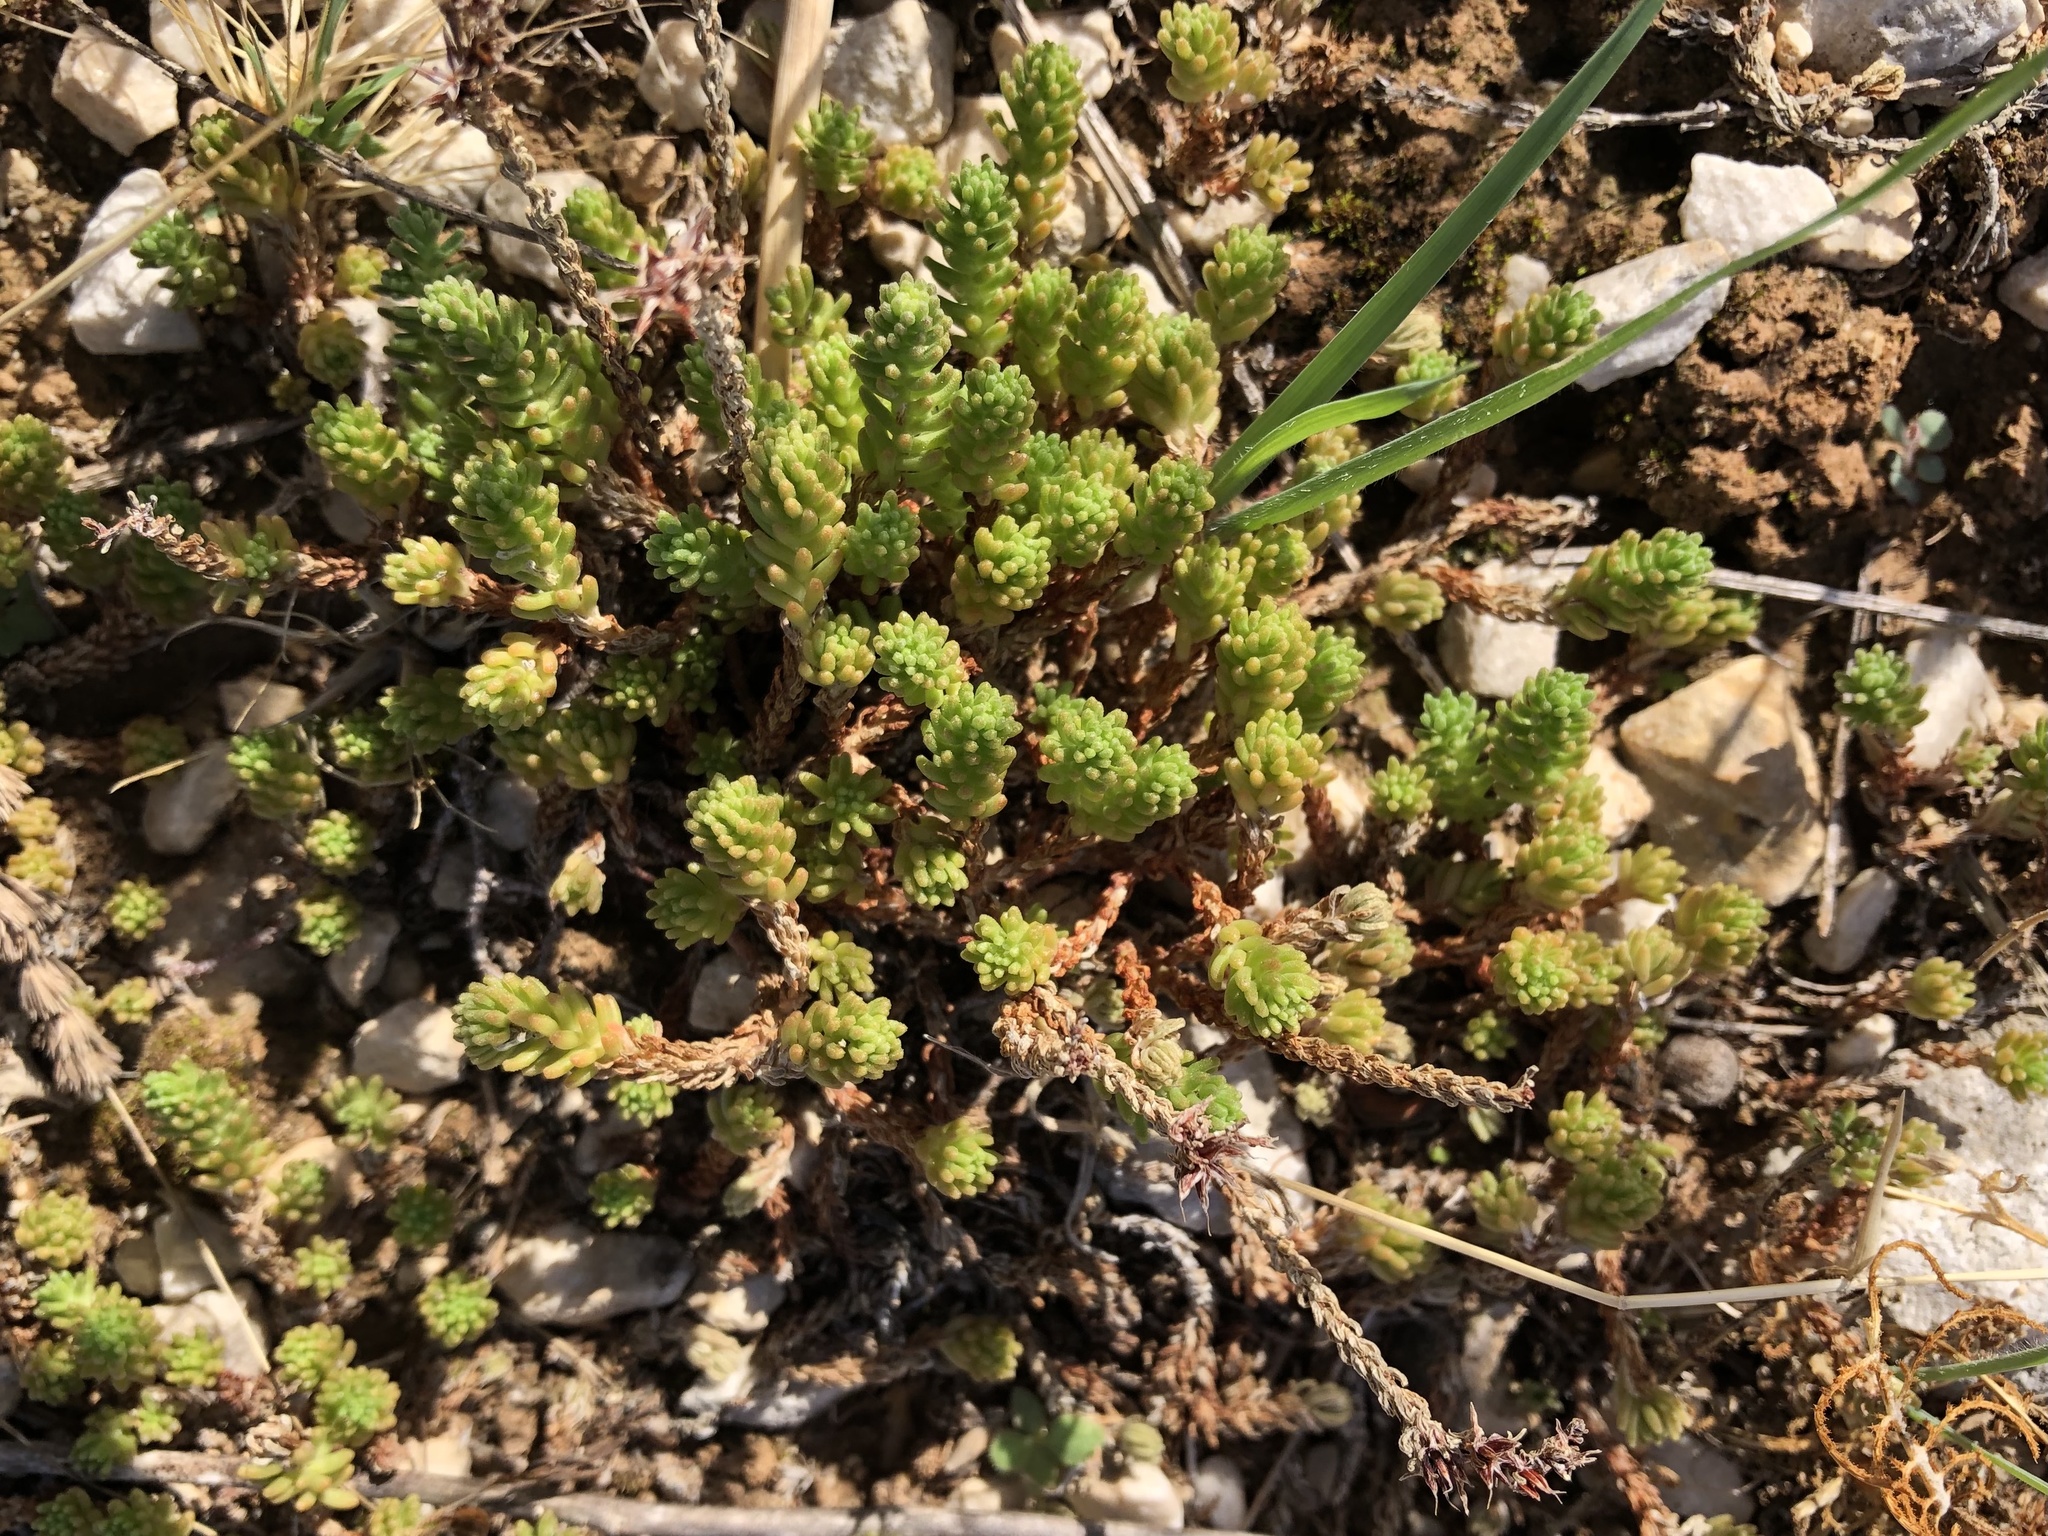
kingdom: Plantae
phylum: Tracheophyta
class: Magnoliopsida
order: Saxifragales
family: Crassulaceae
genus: Sedum
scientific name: Sedum sexangulare
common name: Tasteless stonecrop
